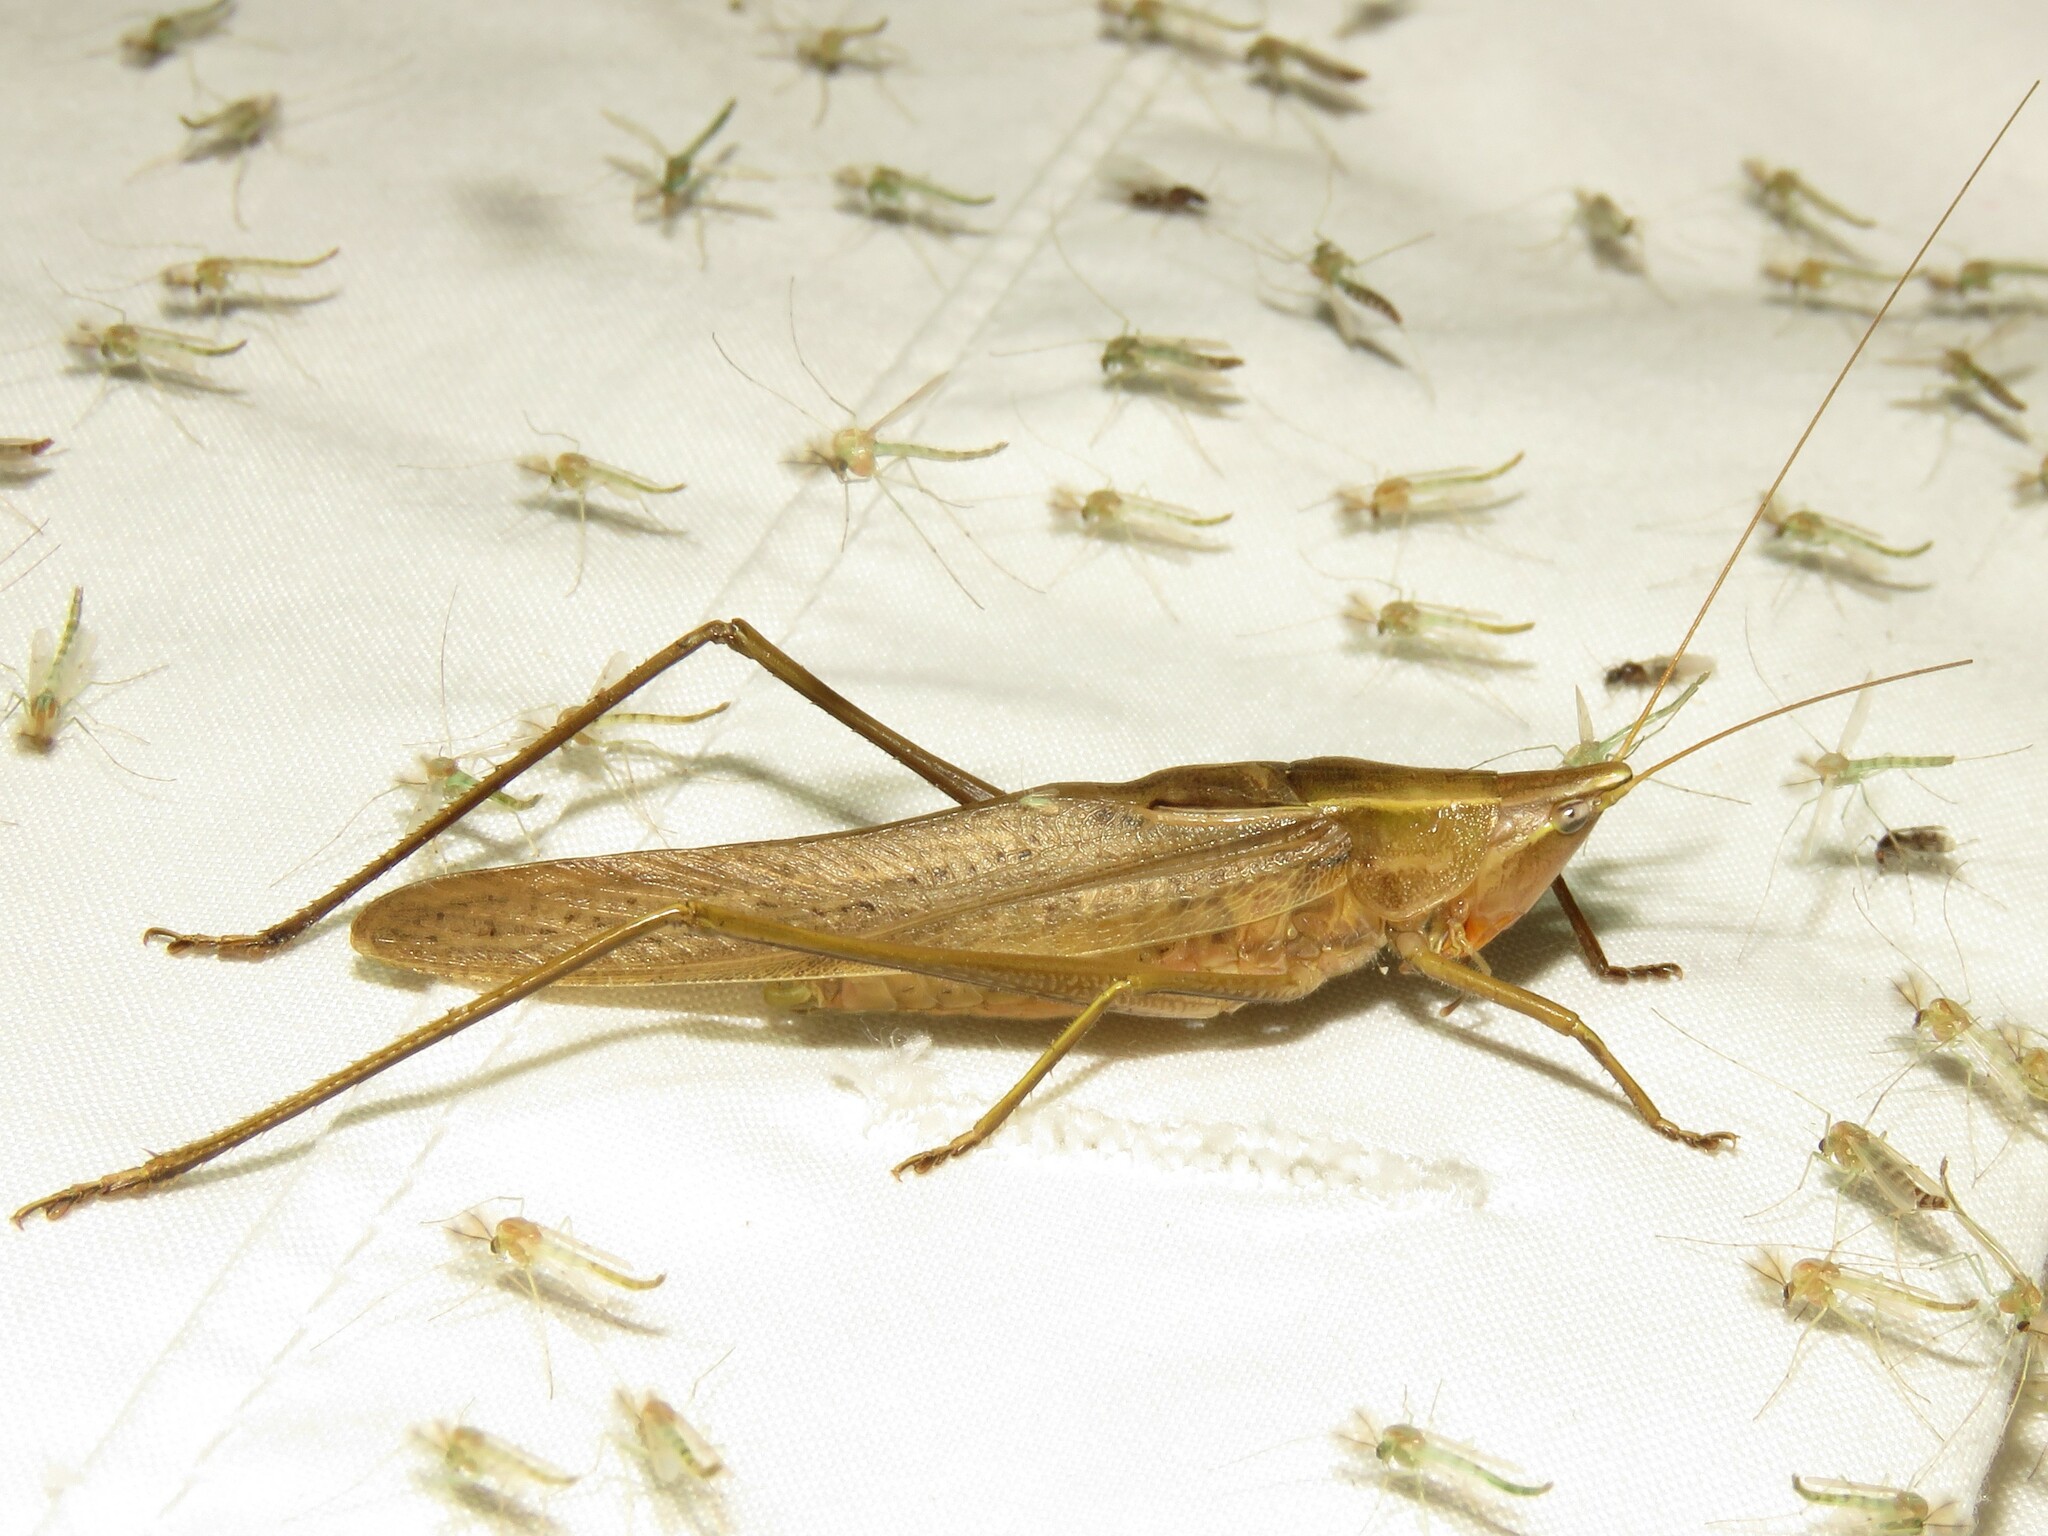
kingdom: Animalia
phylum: Arthropoda
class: Insecta
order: Orthoptera
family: Tettigoniidae
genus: Neoconocephalus
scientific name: Neoconocephalus retusus
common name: Round-tipped conehead
